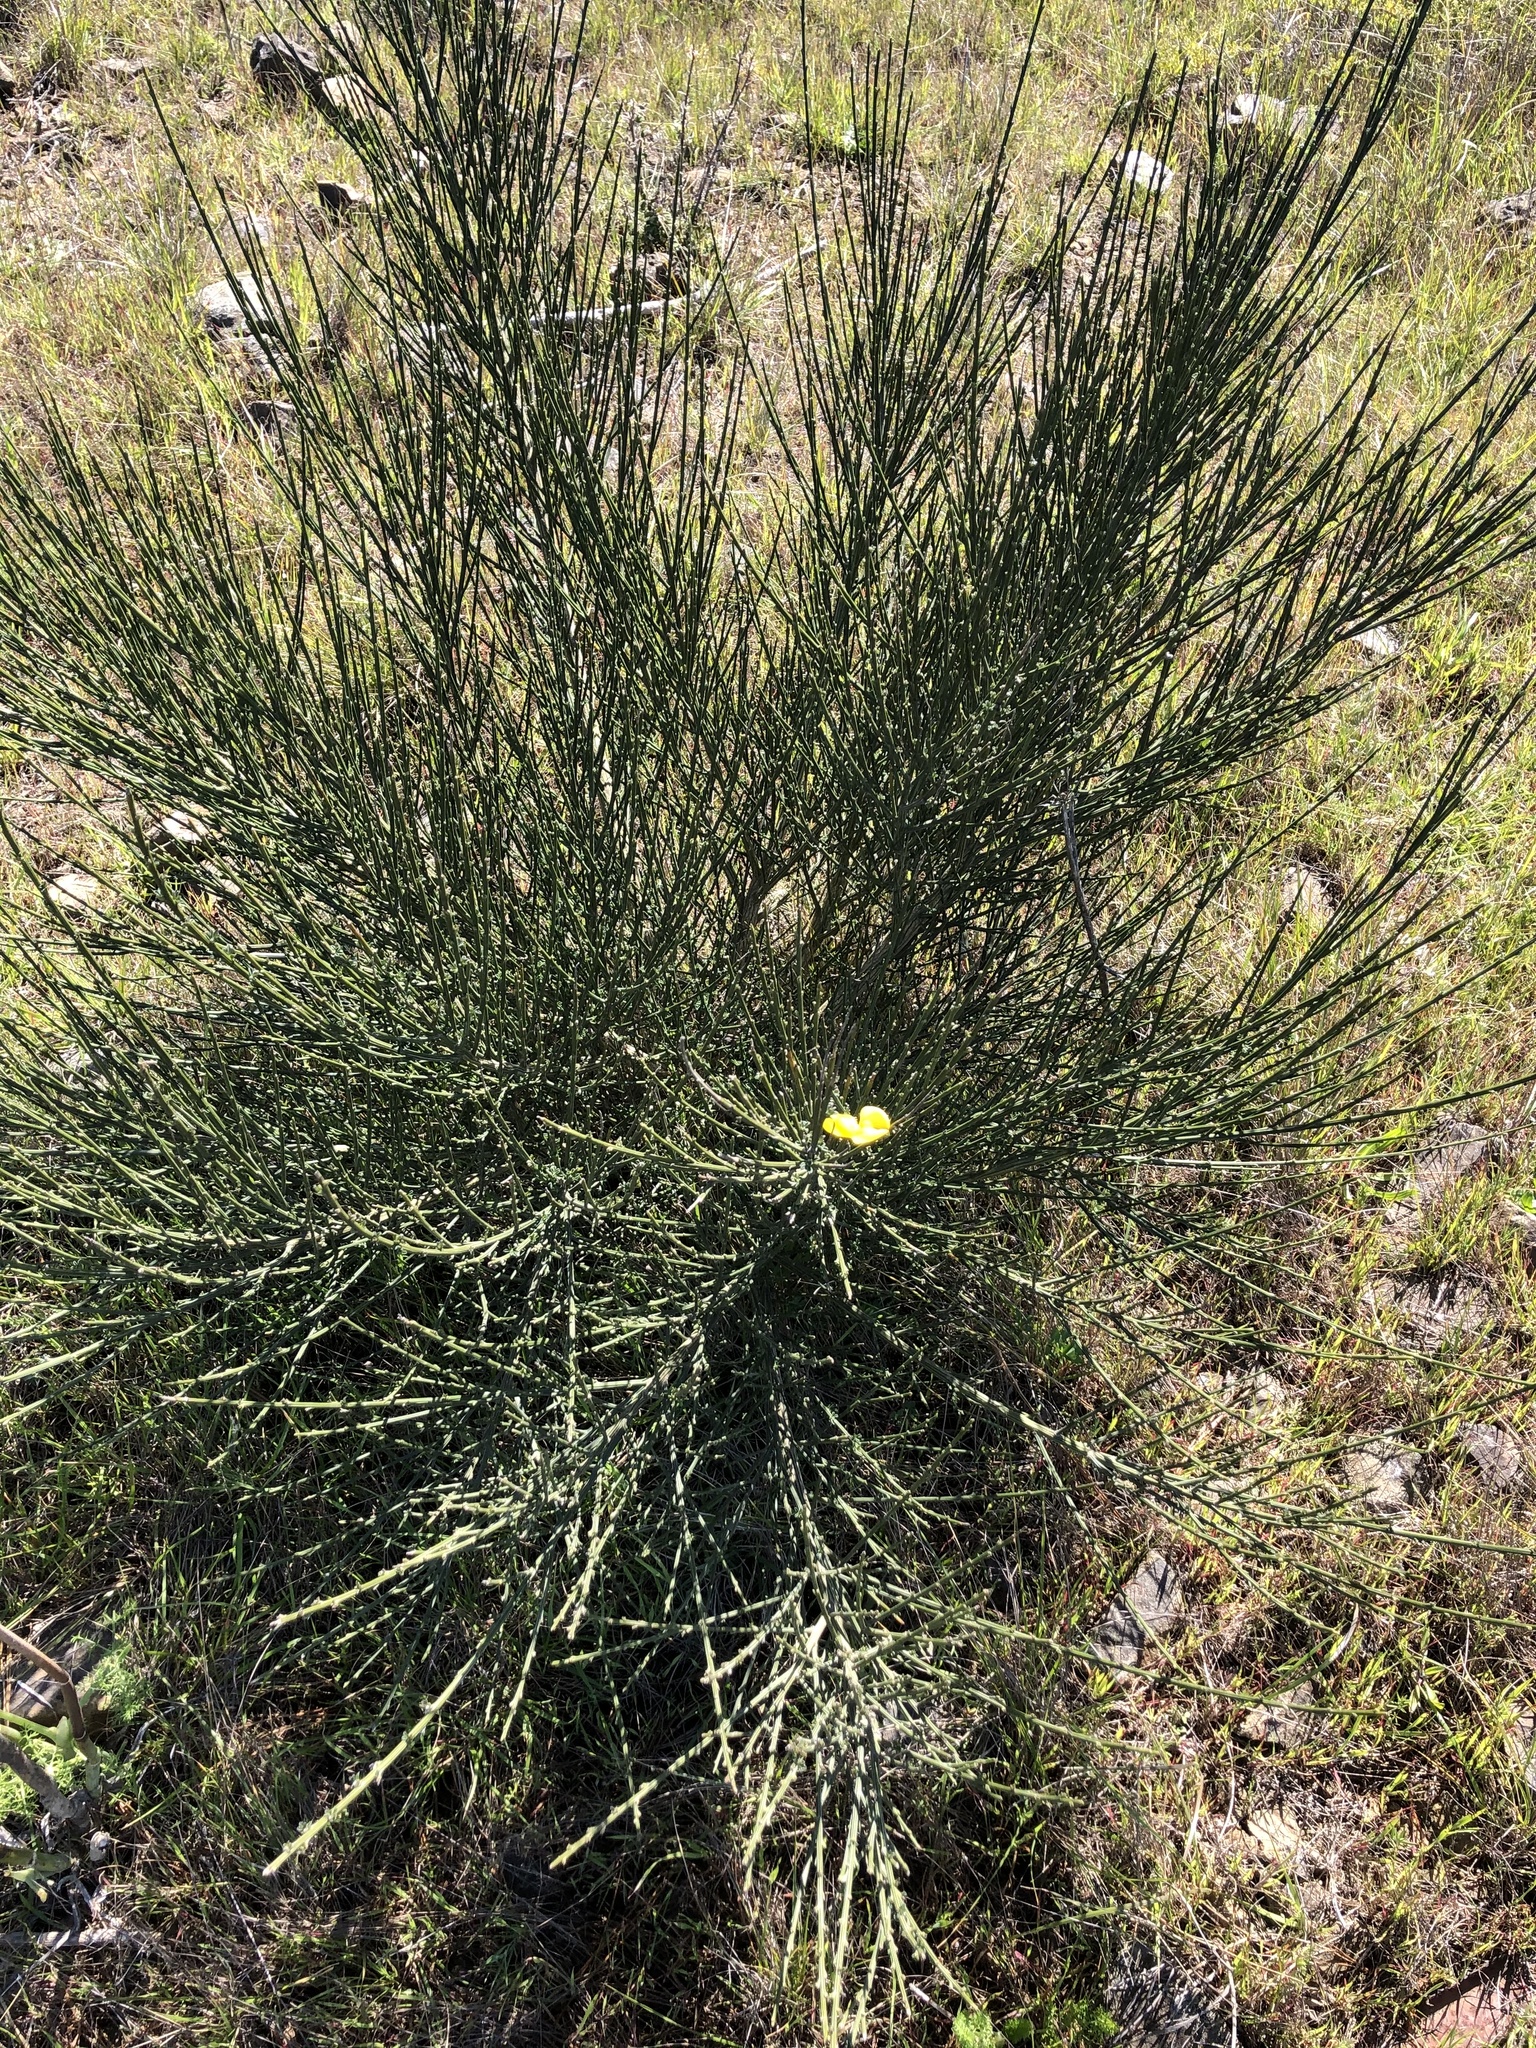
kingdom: Plantae
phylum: Tracheophyta
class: Magnoliopsida
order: Fabales
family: Fabaceae
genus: Cytisus
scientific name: Cytisus striatus
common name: Hairy-fruited broom
